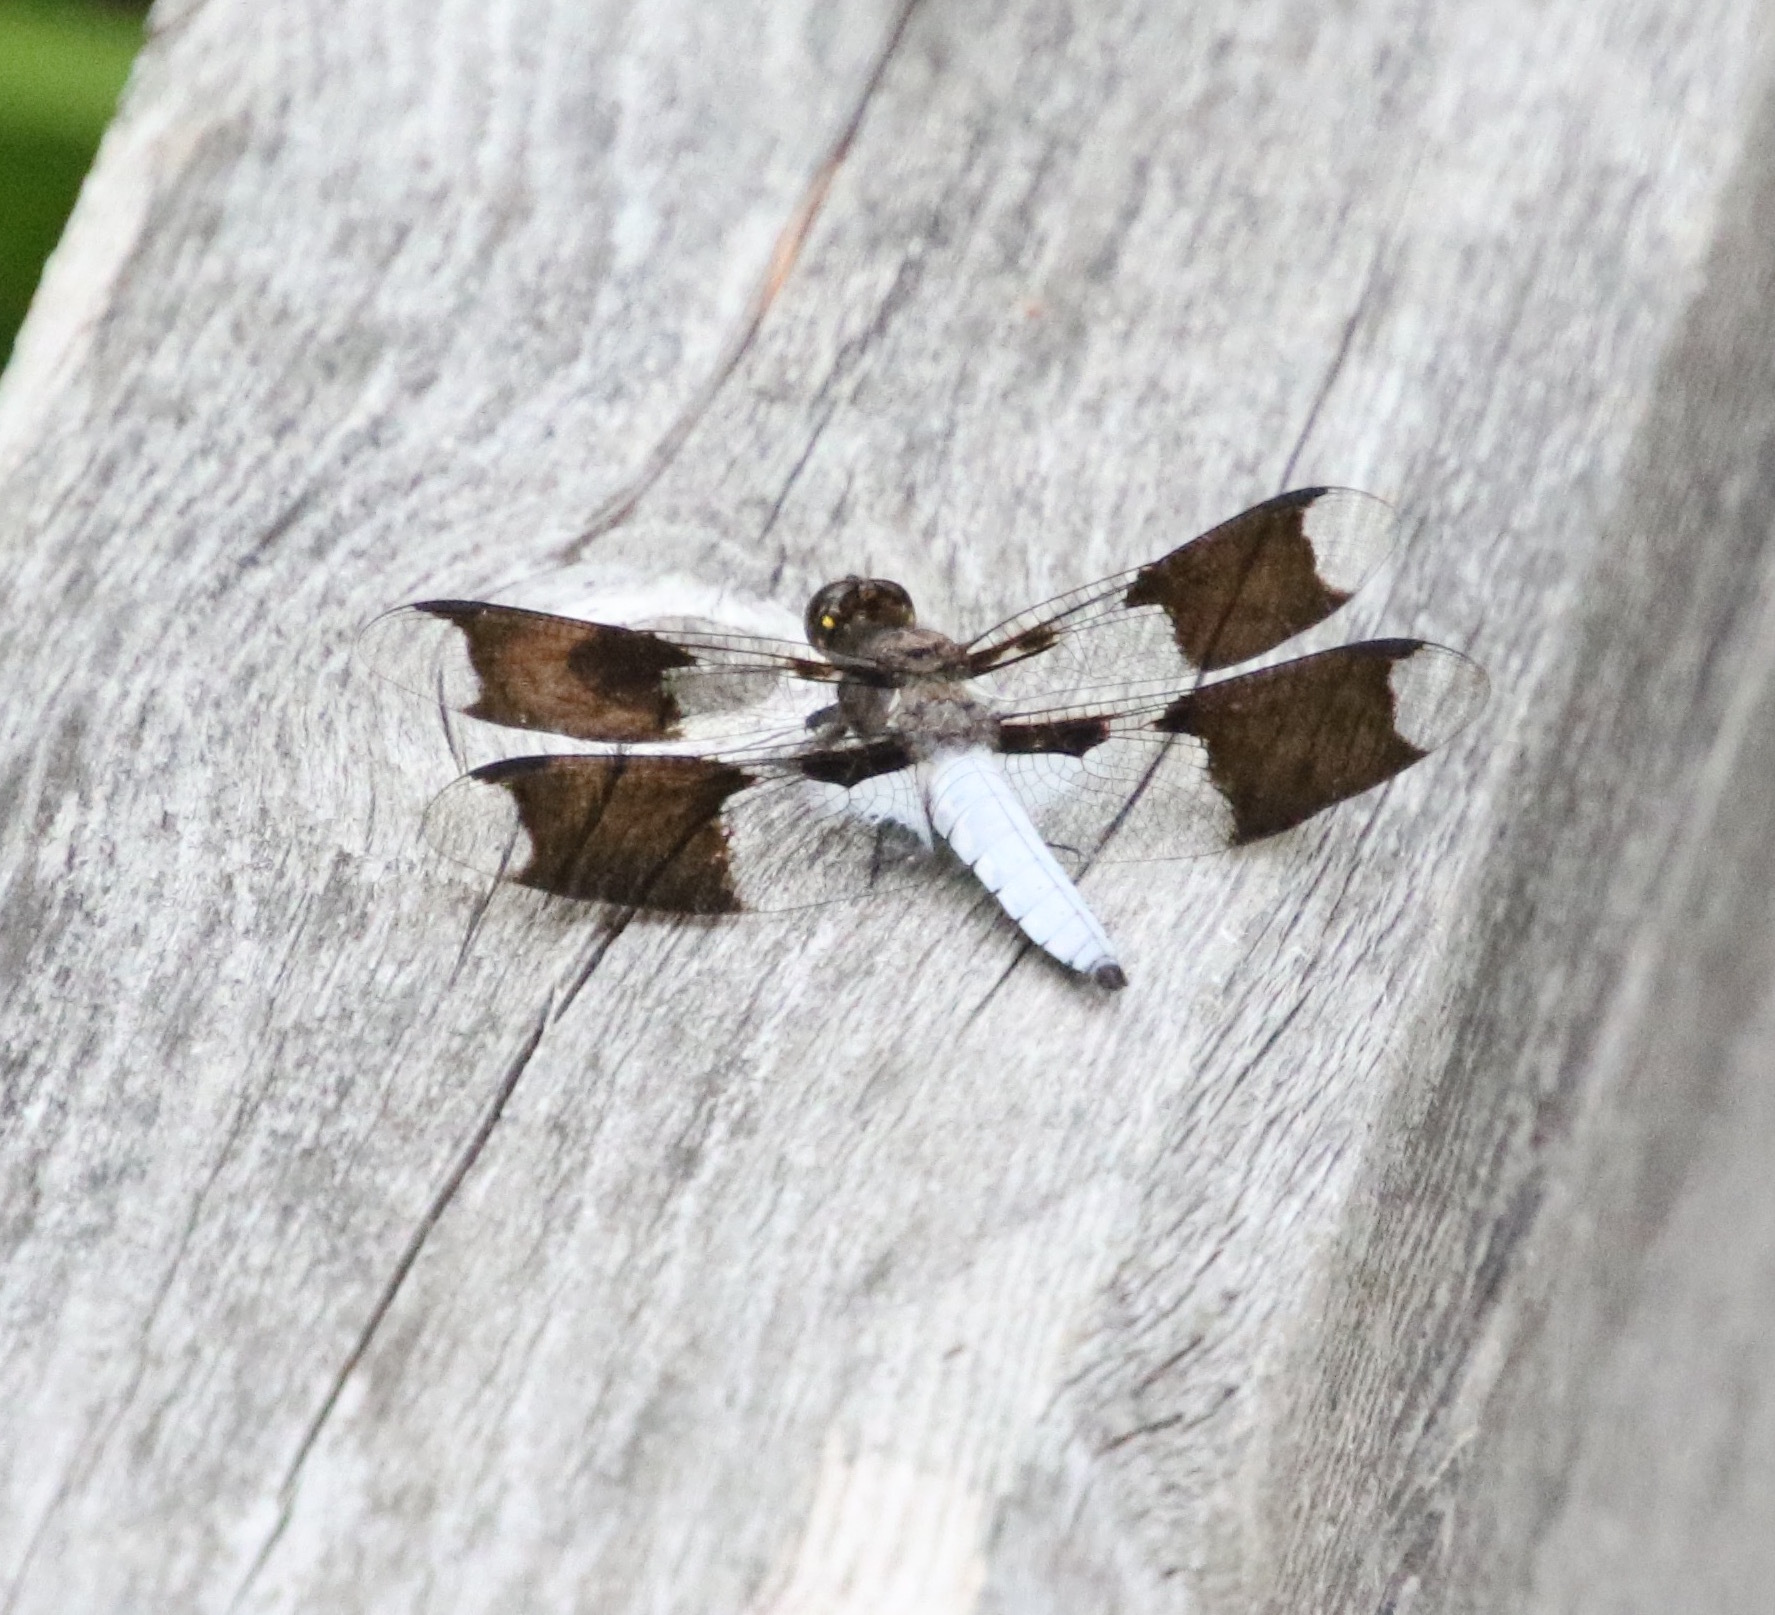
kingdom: Animalia
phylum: Arthropoda
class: Insecta
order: Odonata
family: Libellulidae
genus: Plathemis
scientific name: Plathemis lydia
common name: Common whitetail
